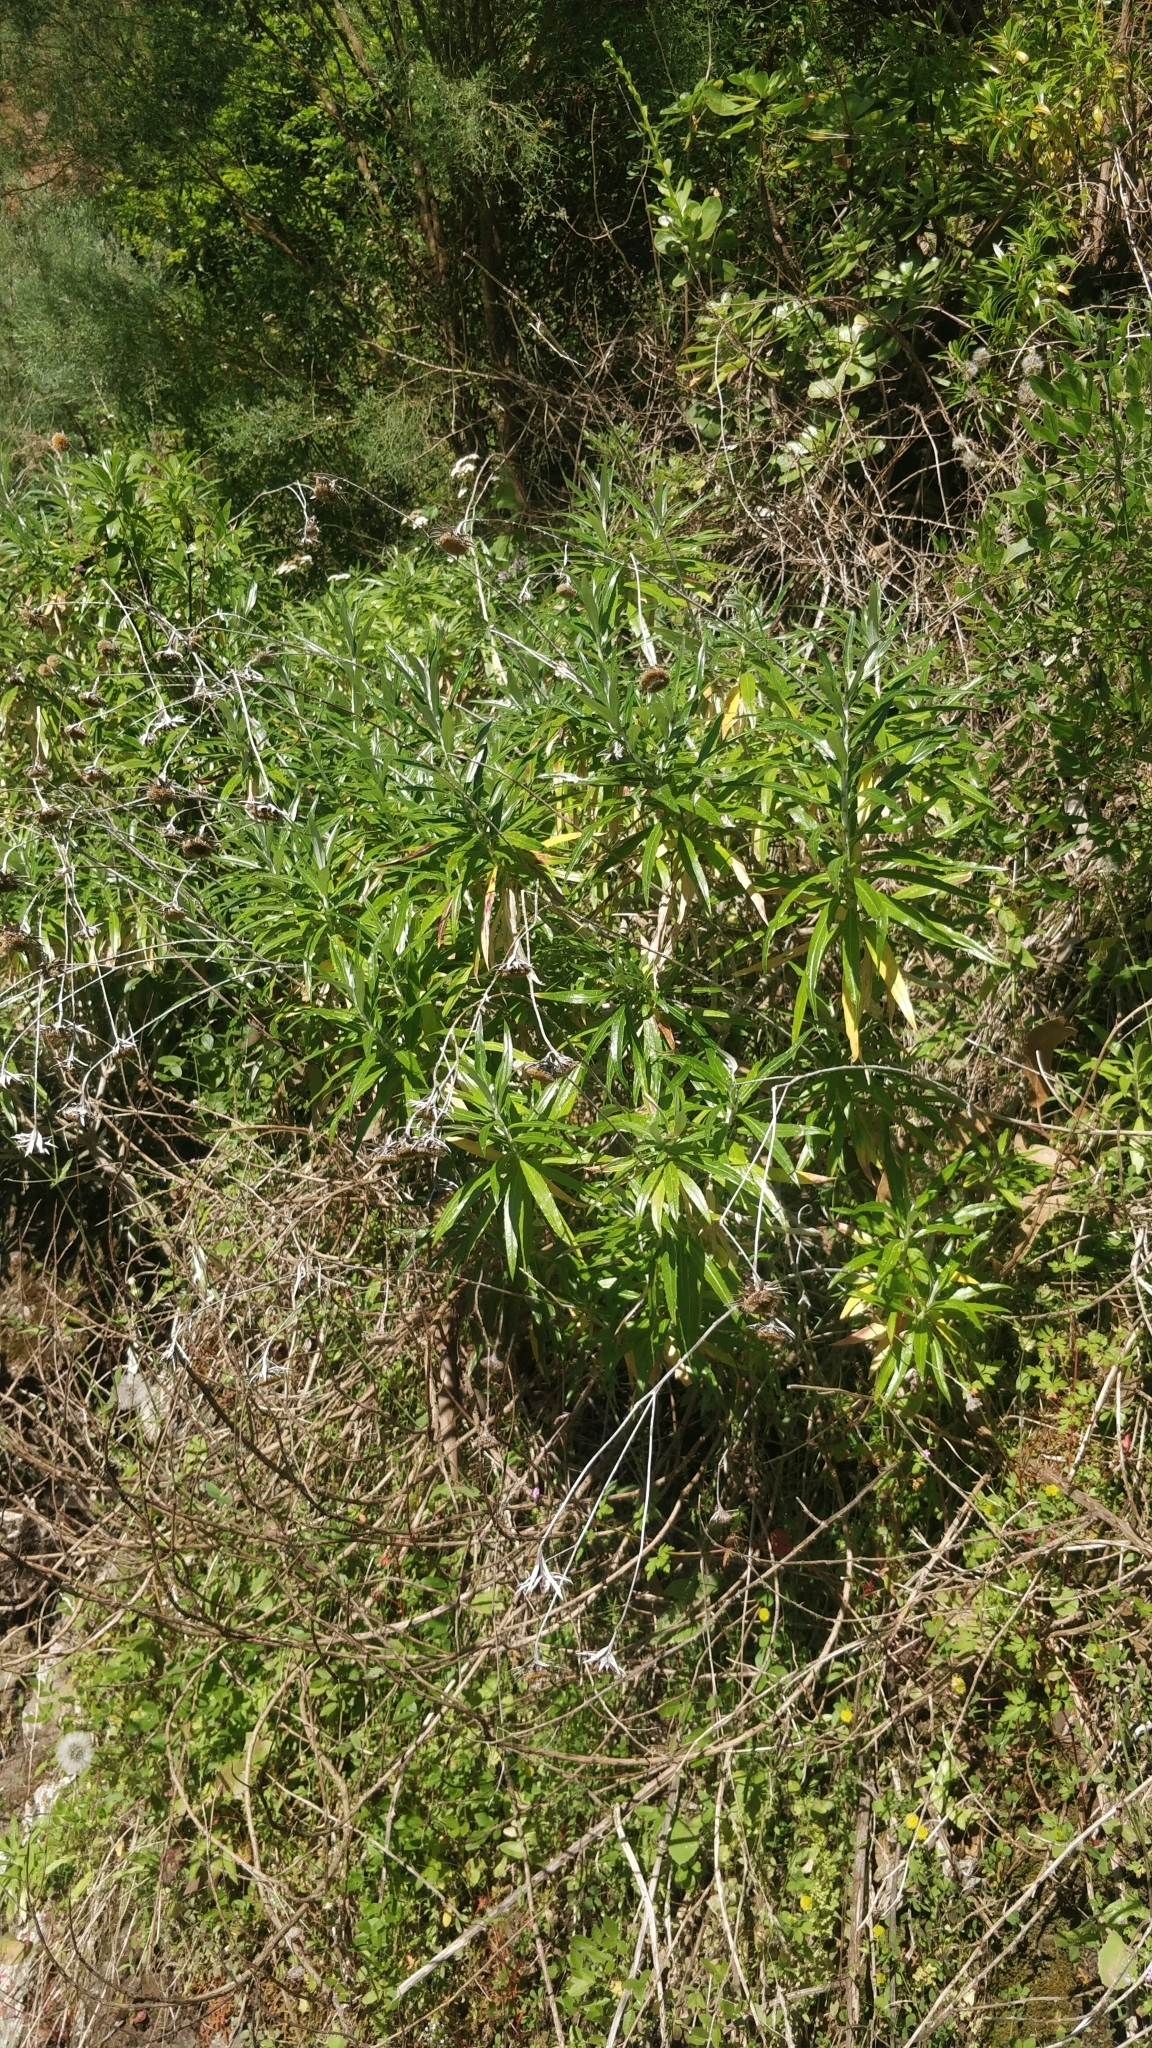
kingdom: Plantae
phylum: Tracheophyta
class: Magnoliopsida
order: Asterales
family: Asteraceae
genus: Carlina
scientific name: Carlina salicifolia
